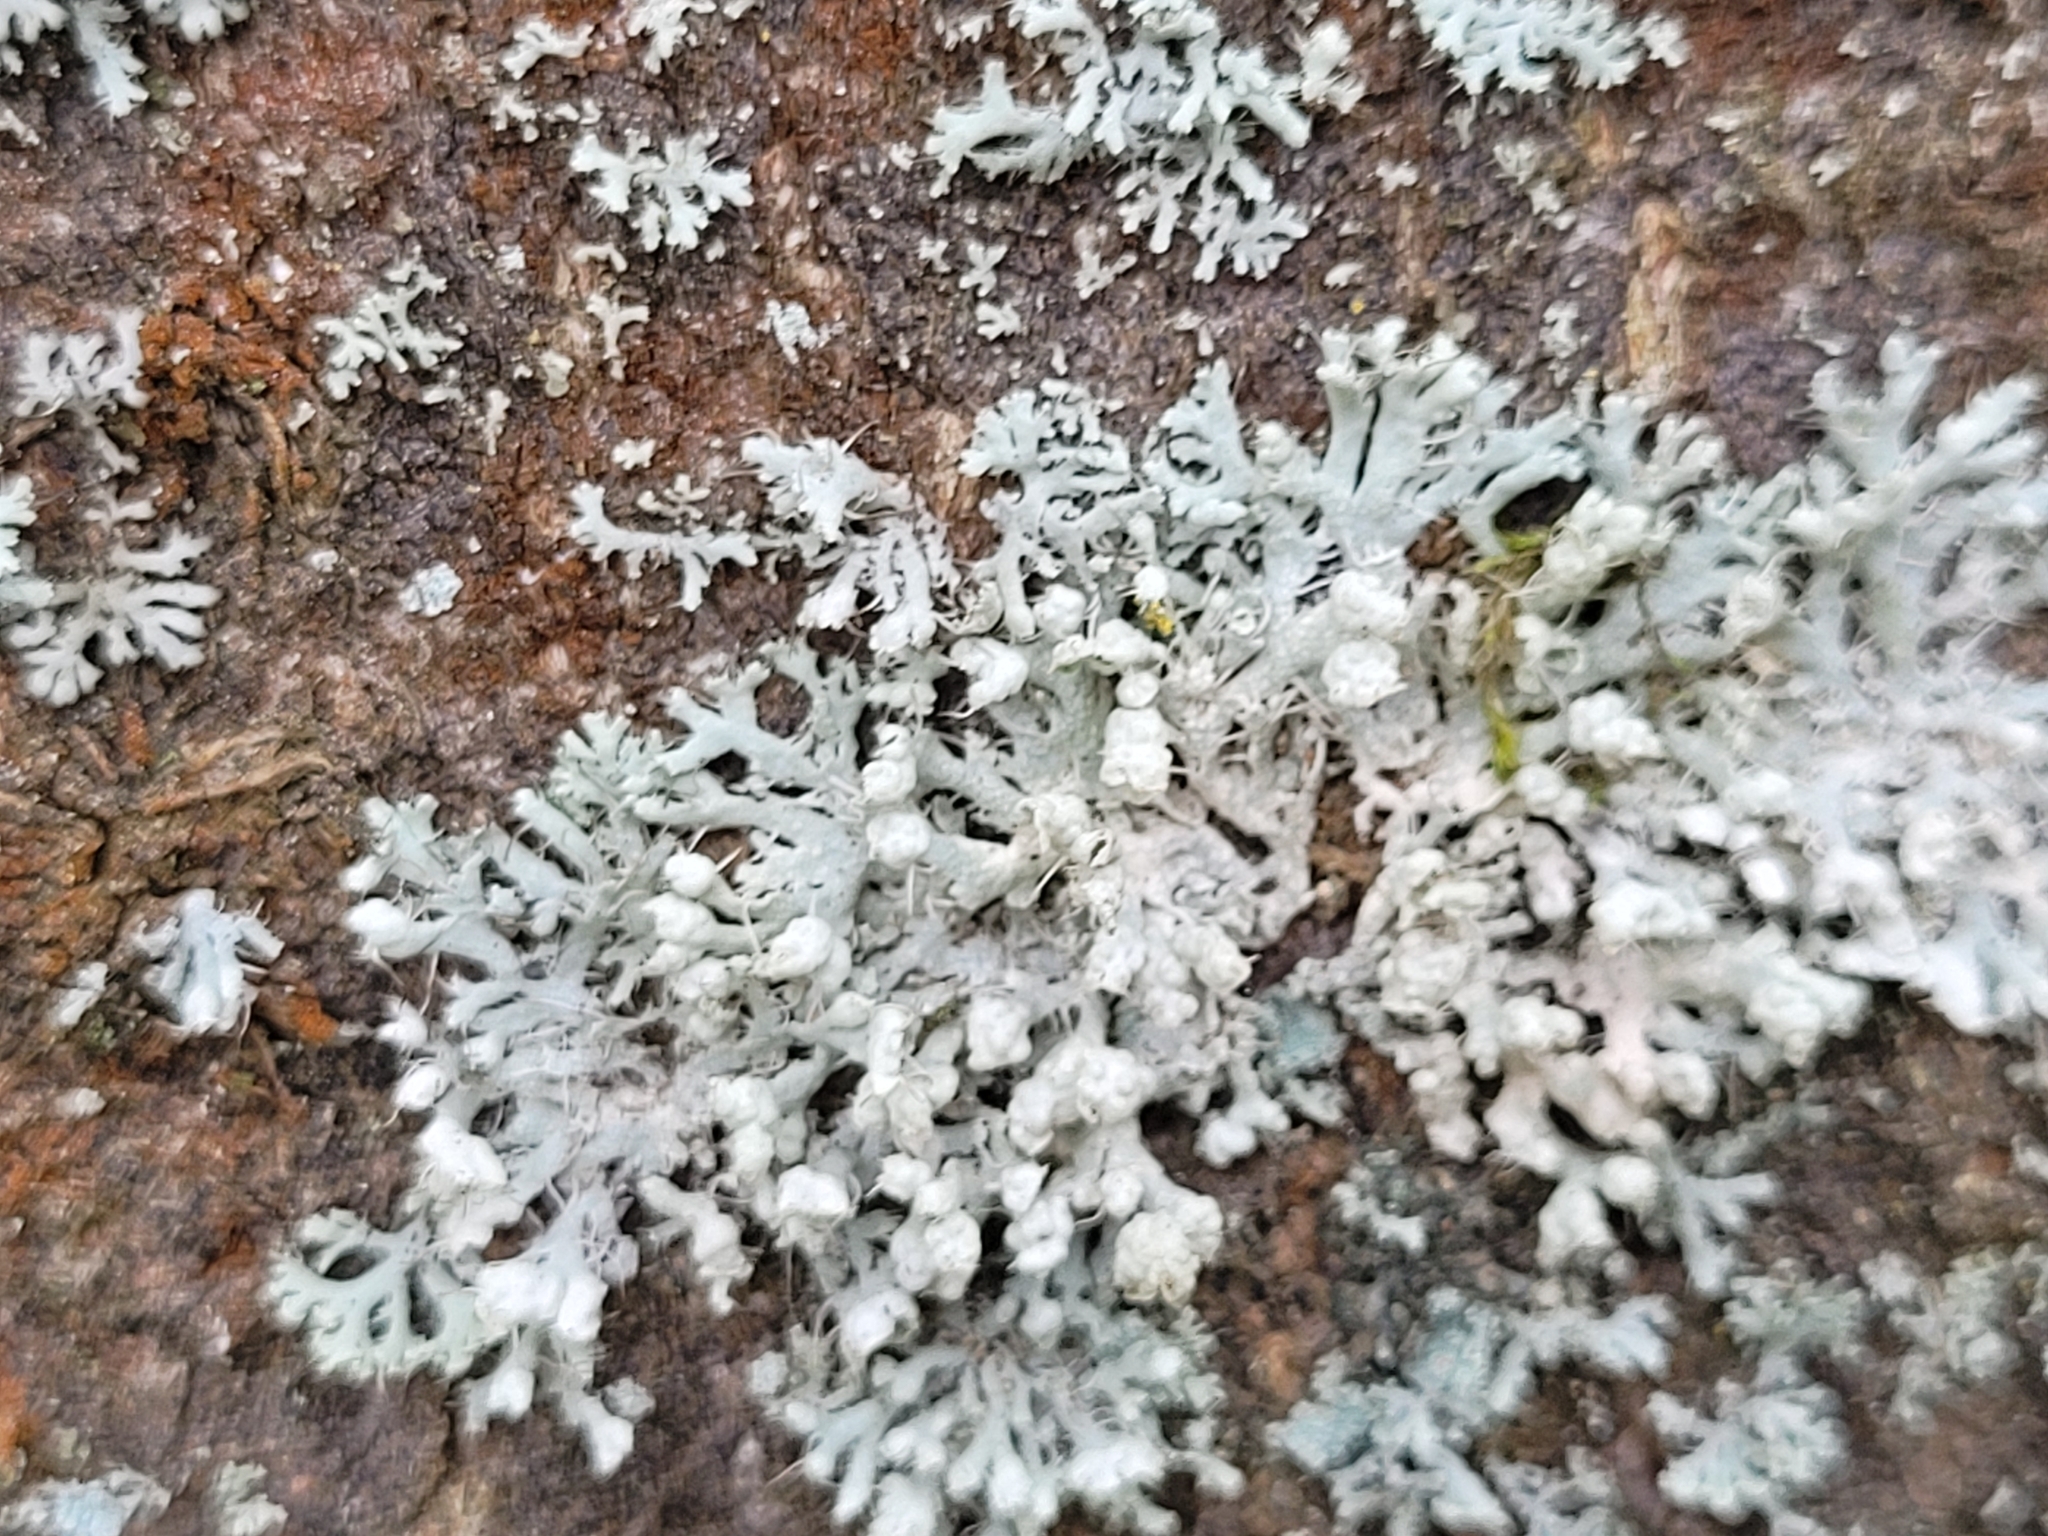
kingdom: Fungi
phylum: Ascomycota
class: Lecanoromycetes
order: Caliciales
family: Physciaceae
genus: Physcia
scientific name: Physcia adscendens
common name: Hooded rosette lichen
